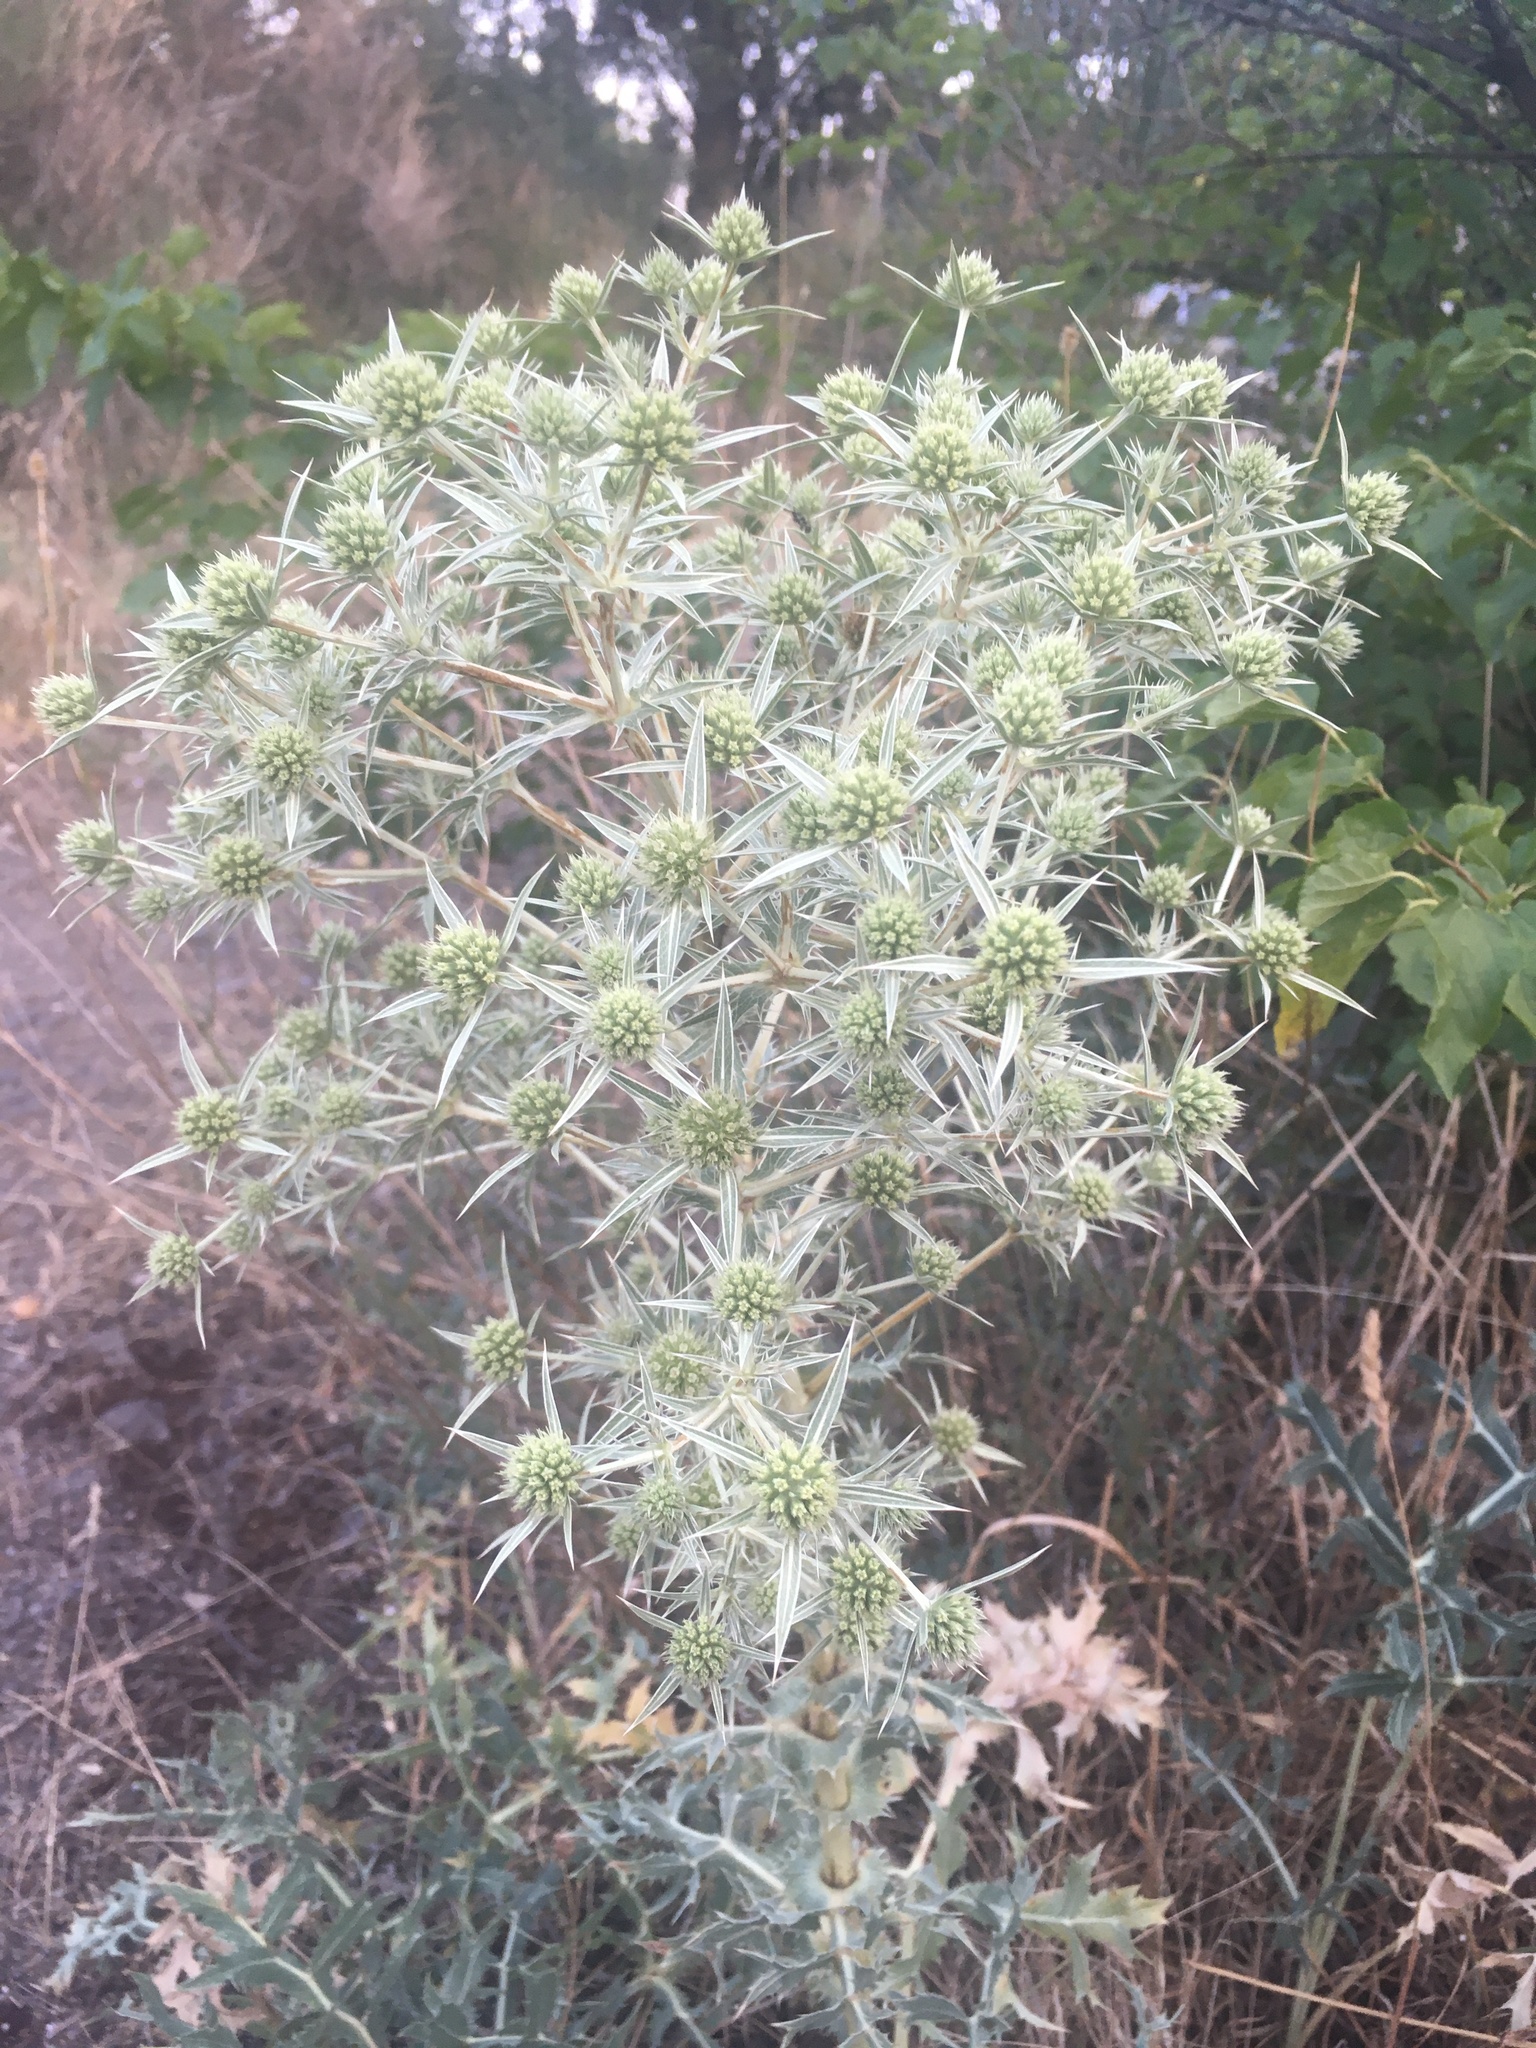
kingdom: Plantae
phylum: Tracheophyta
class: Magnoliopsida
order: Apiales
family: Apiaceae
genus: Eryngium
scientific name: Eryngium campestre
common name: Field eryngo
